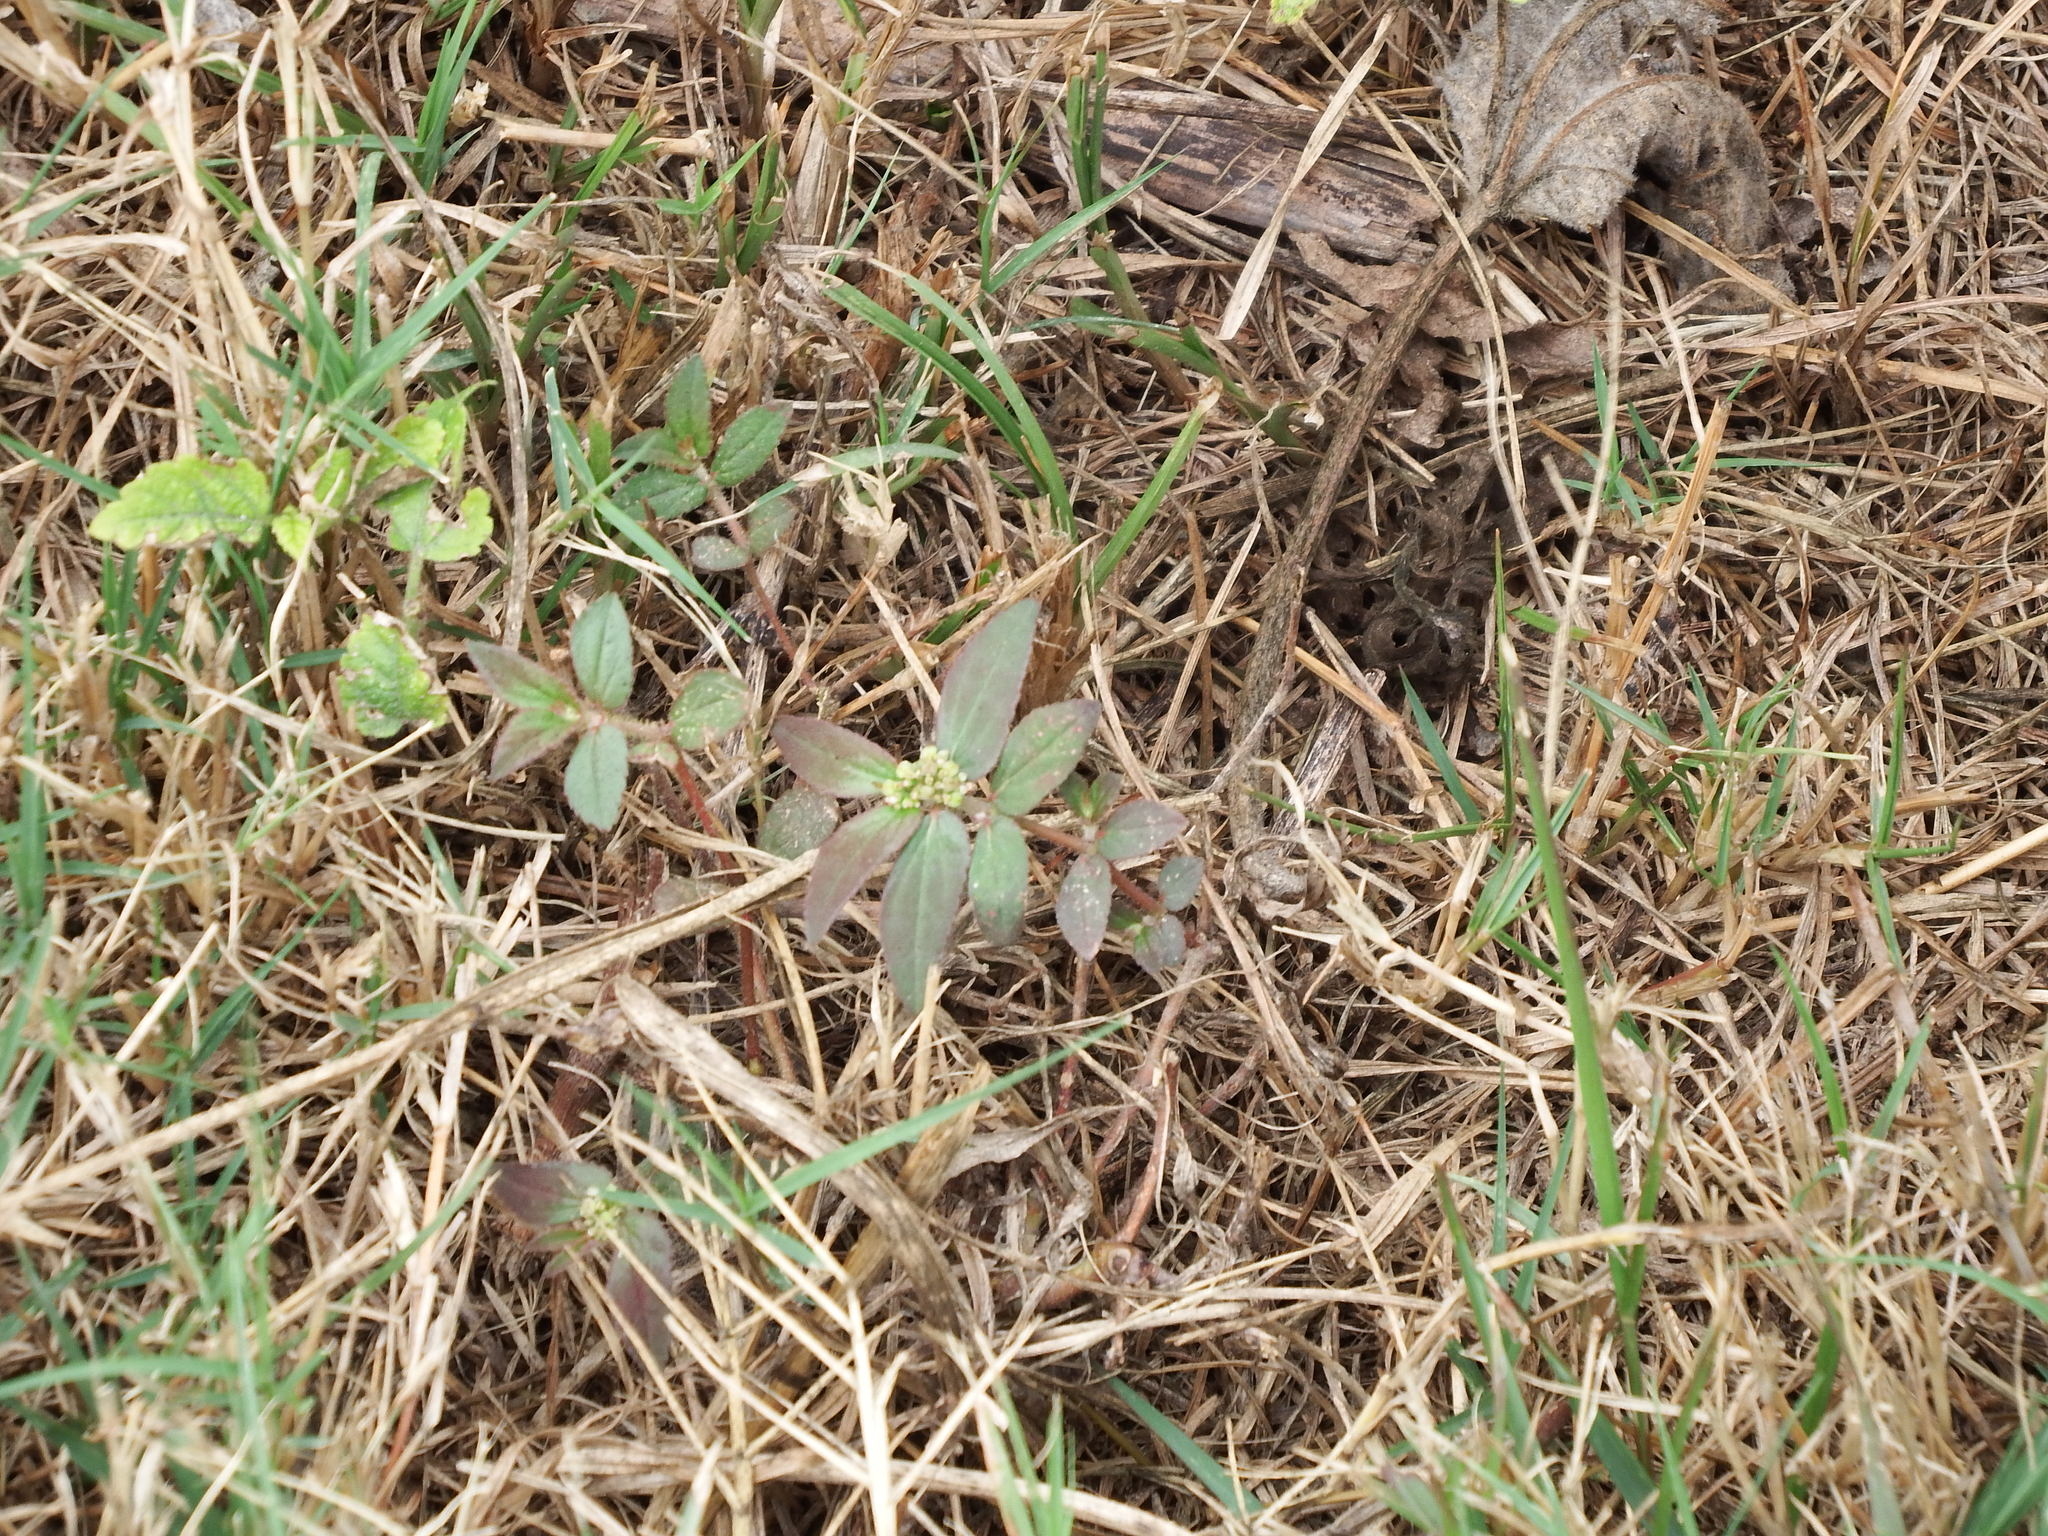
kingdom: Plantae
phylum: Tracheophyta
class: Magnoliopsida
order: Malpighiales
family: Euphorbiaceae
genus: Euphorbia
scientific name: Euphorbia hirta
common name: Pillpod sandmat
